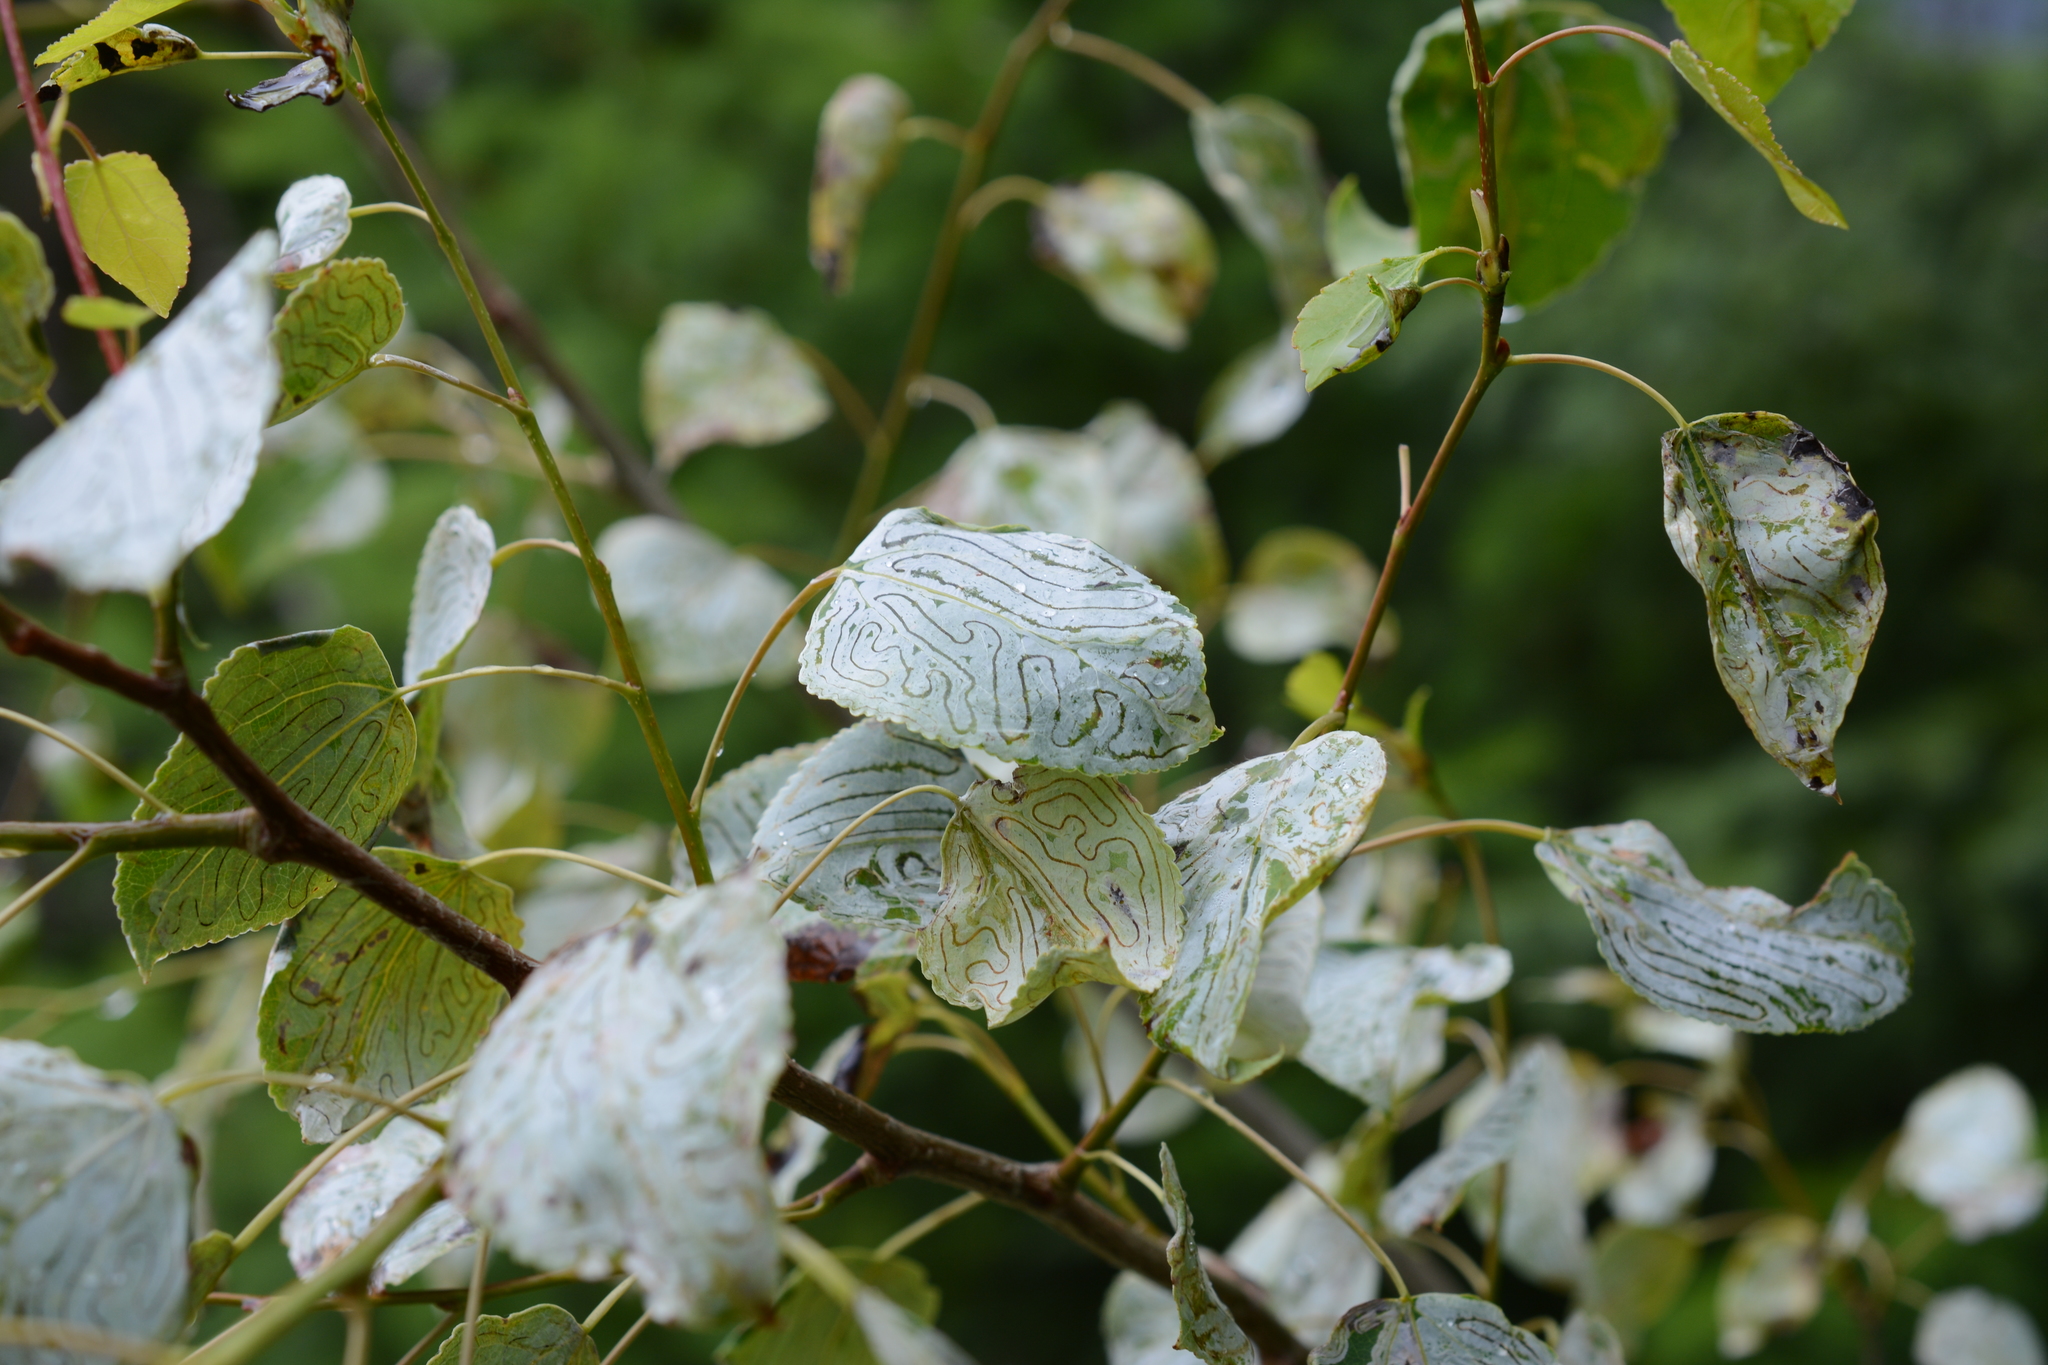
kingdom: Animalia
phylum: Arthropoda
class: Insecta
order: Lepidoptera
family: Gracillariidae
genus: Phyllocnistis
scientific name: Phyllocnistis populiella
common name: Aspen serpentine leafminer moth
